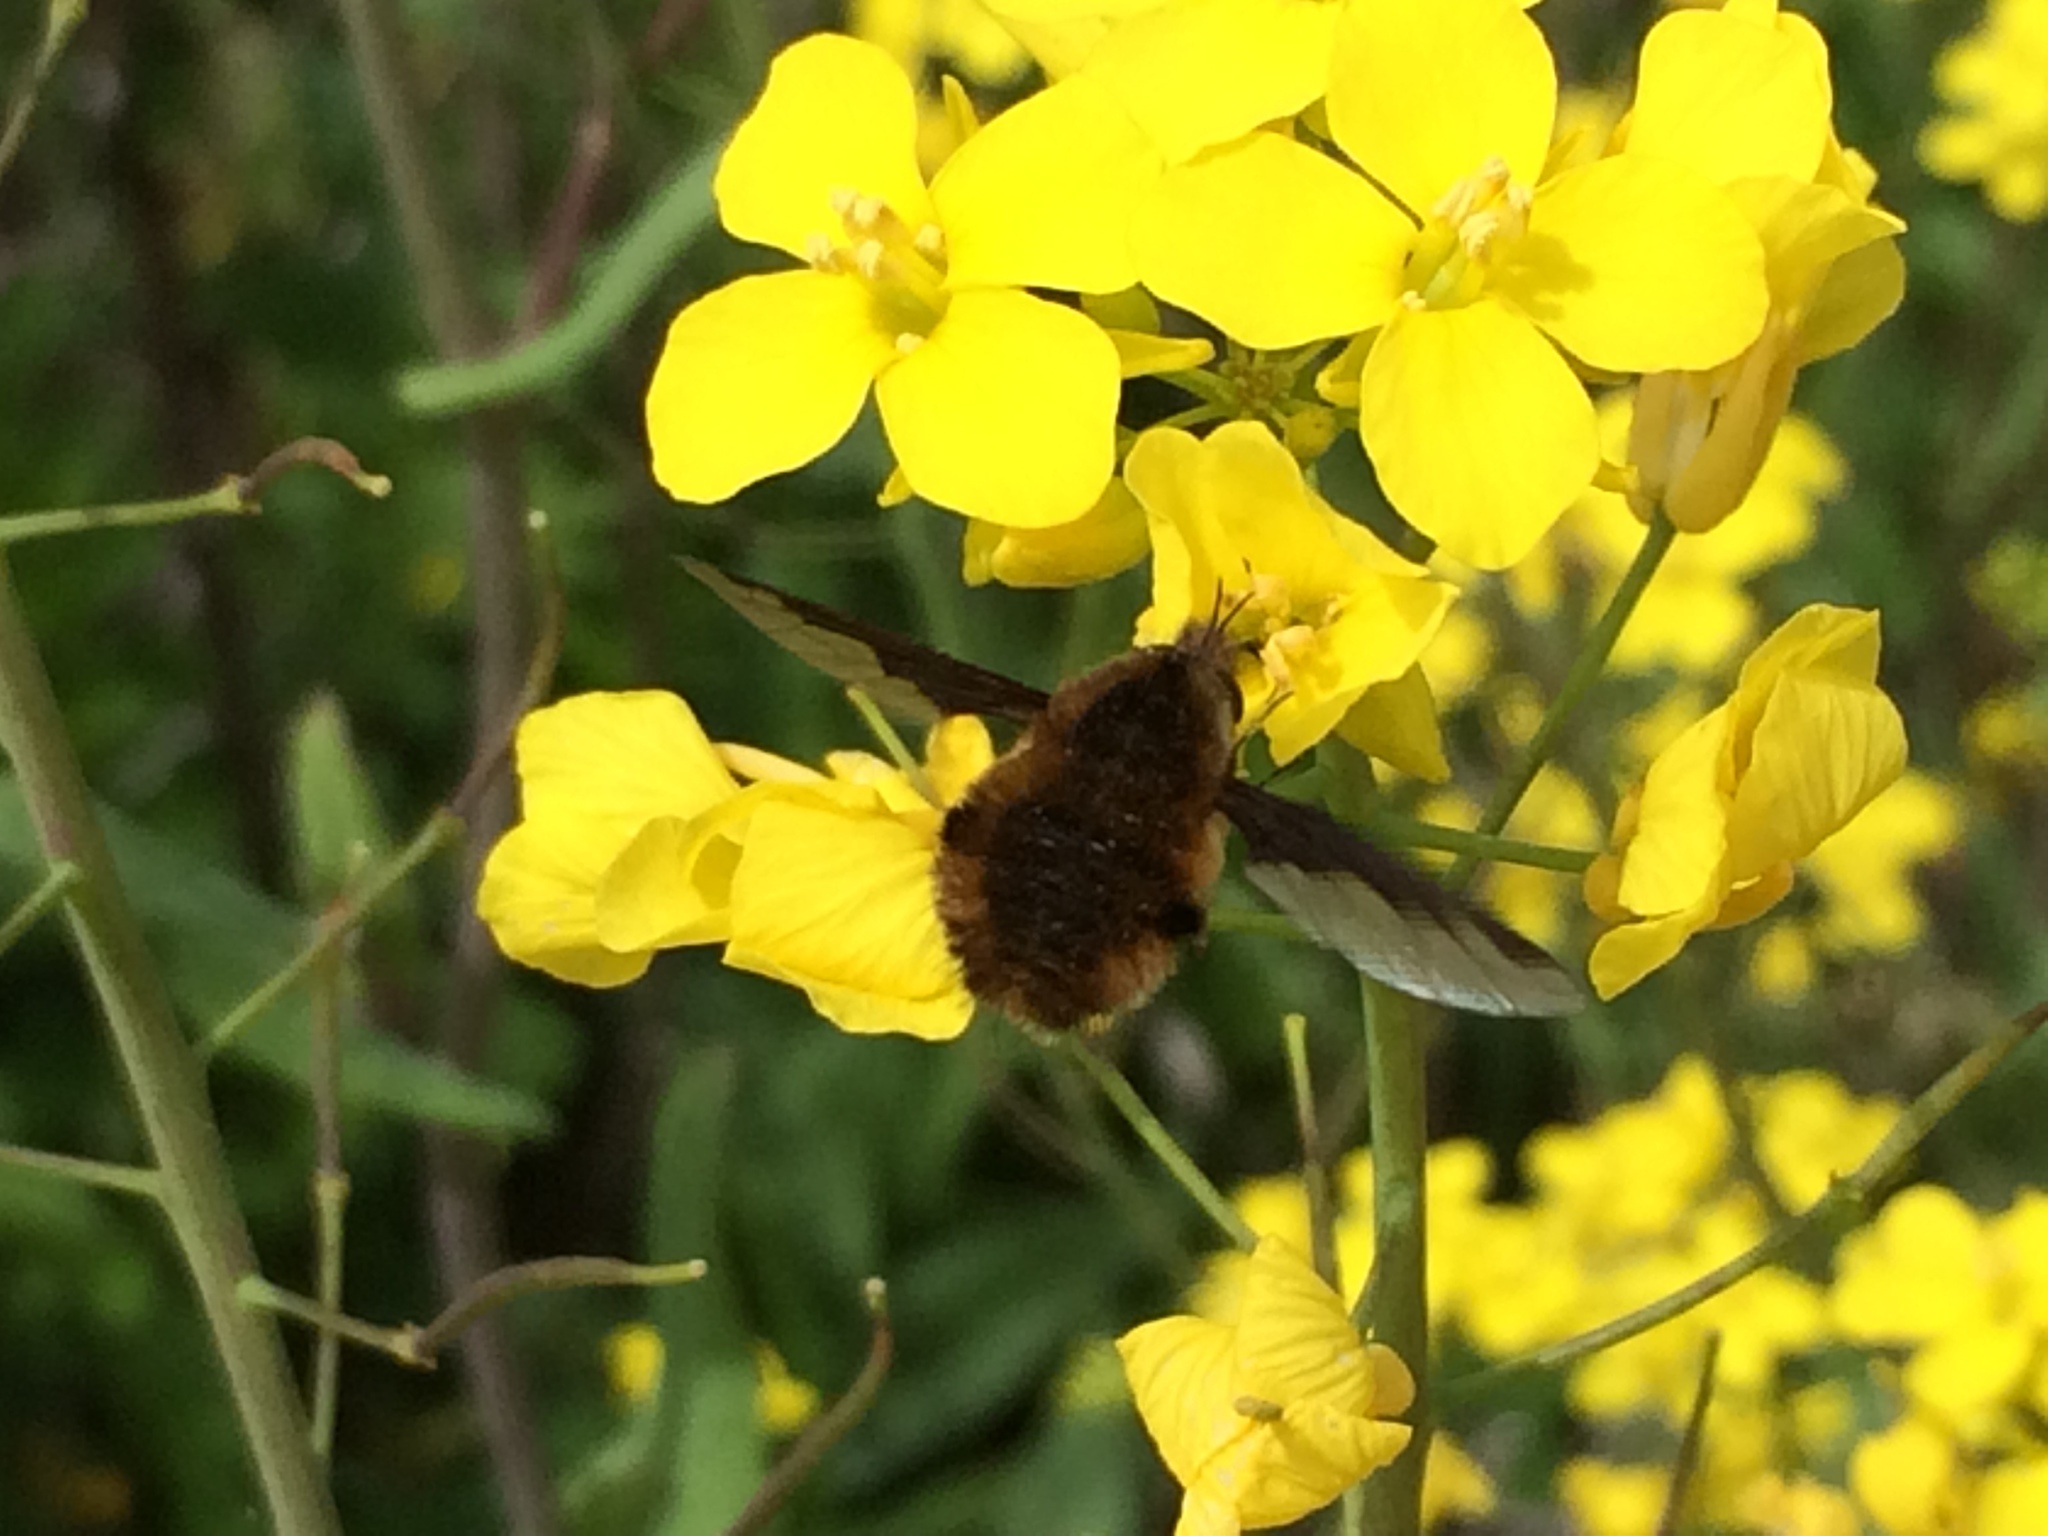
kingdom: Animalia
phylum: Arthropoda
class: Insecta
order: Diptera
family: Bombyliidae
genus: Bombylius
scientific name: Bombylius major
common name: Bee fly
